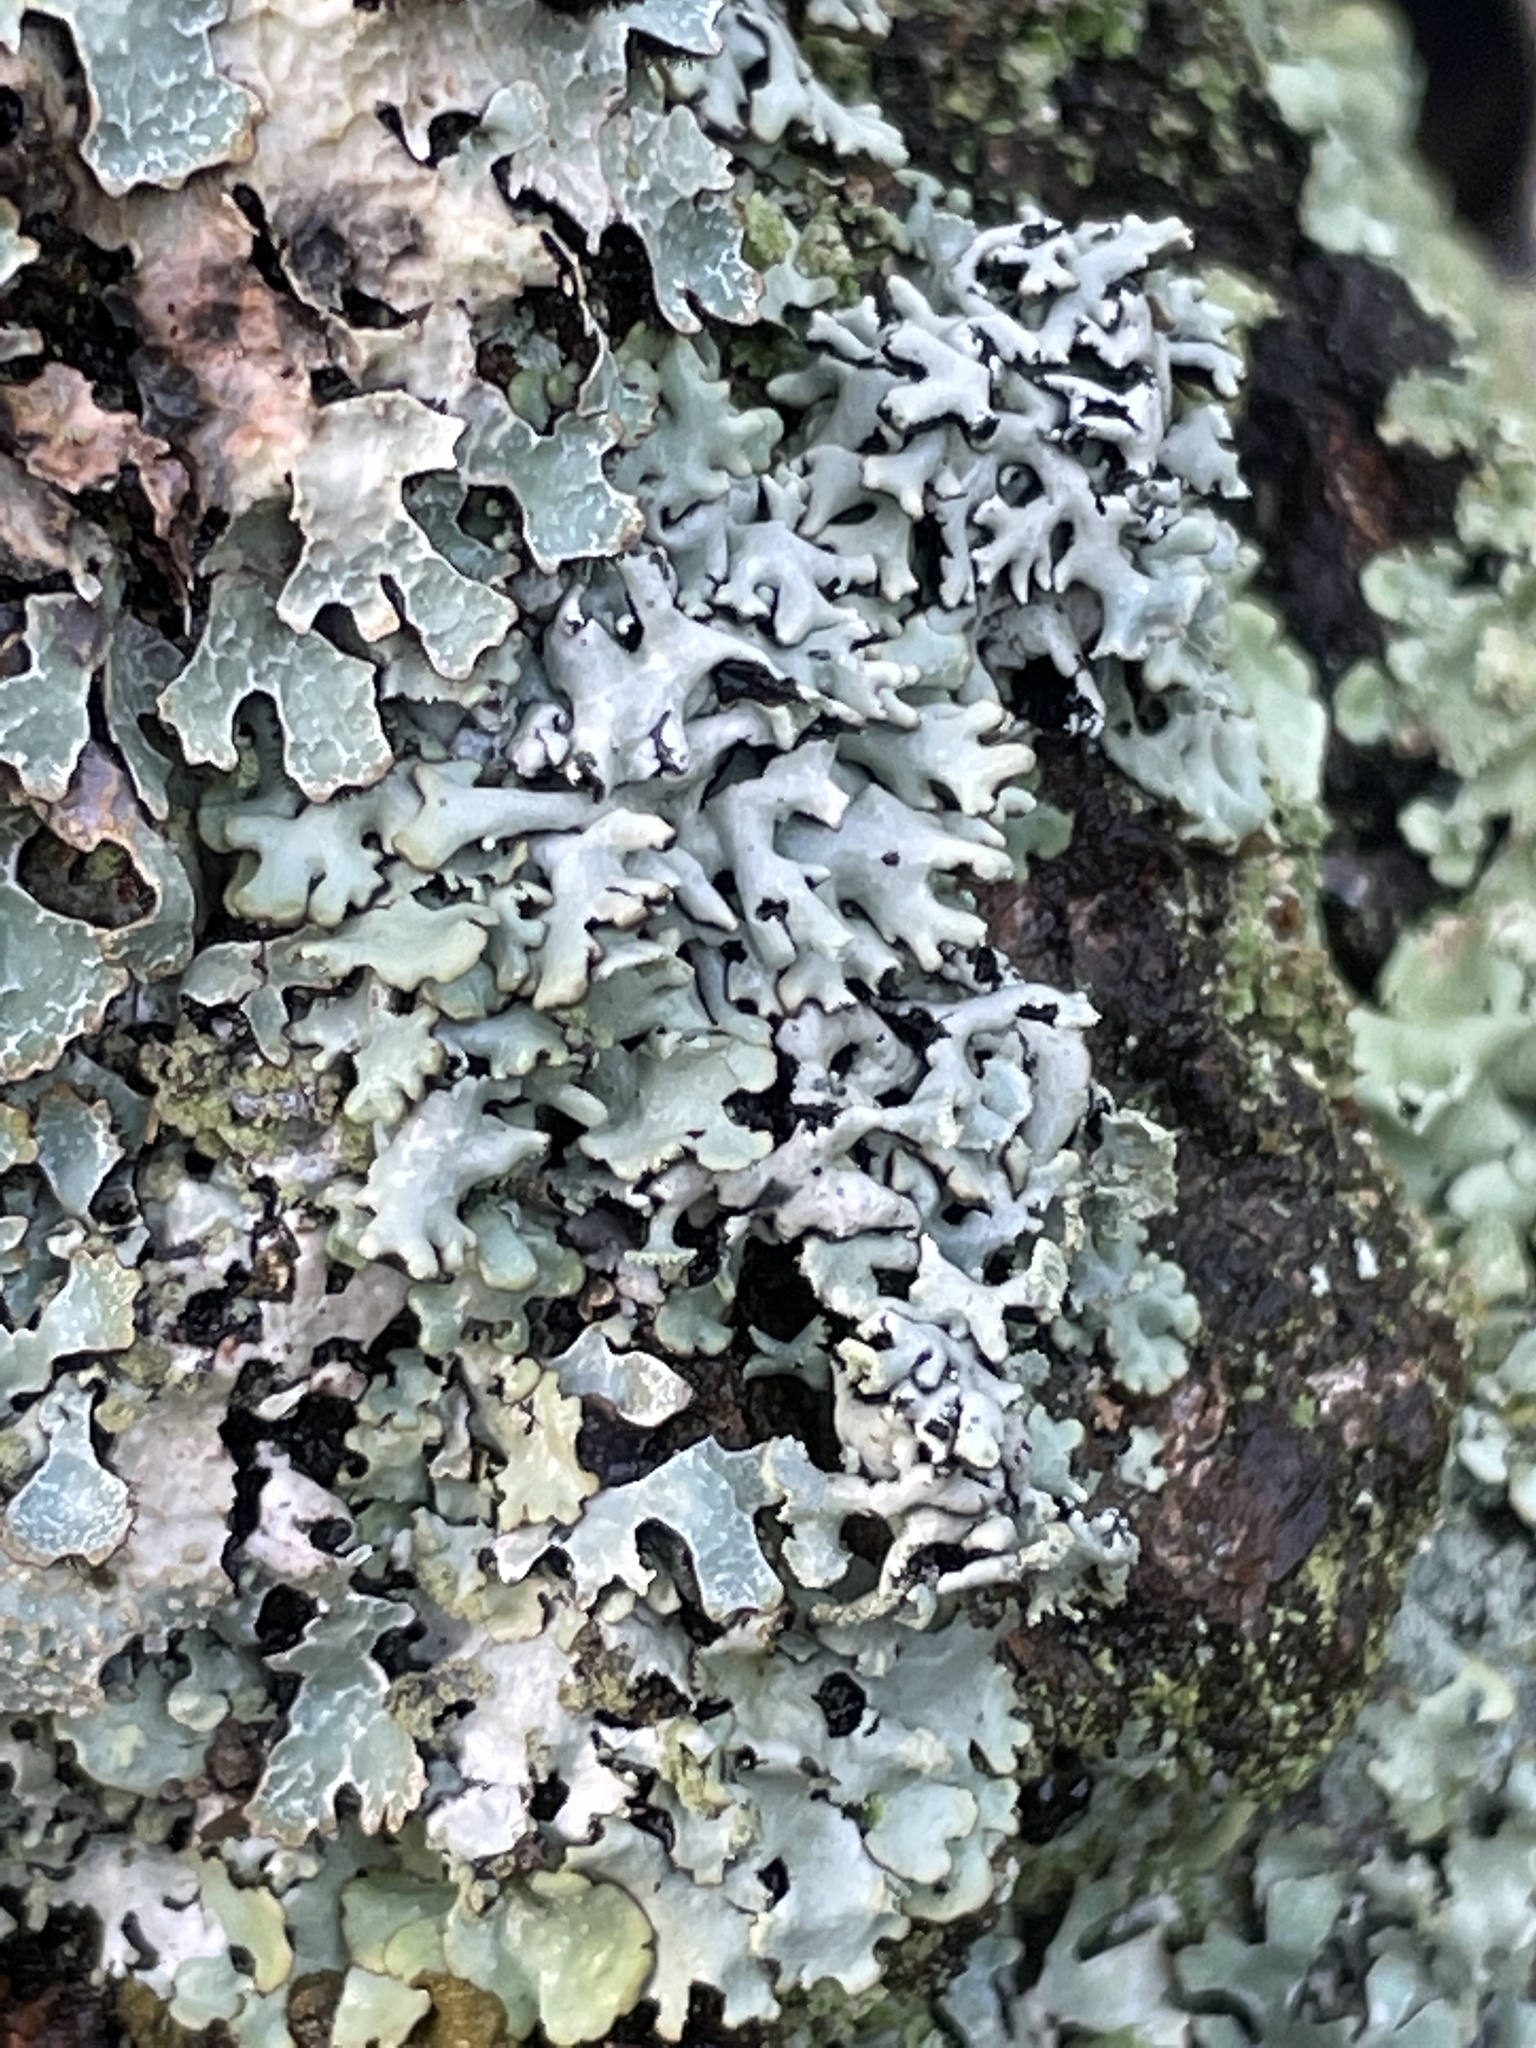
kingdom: Fungi
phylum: Ascomycota
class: Lecanoromycetes
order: Lecanorales
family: Parmeliaceae
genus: Hypogymnia
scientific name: Hypogymnia physodes
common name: Dark crottle
